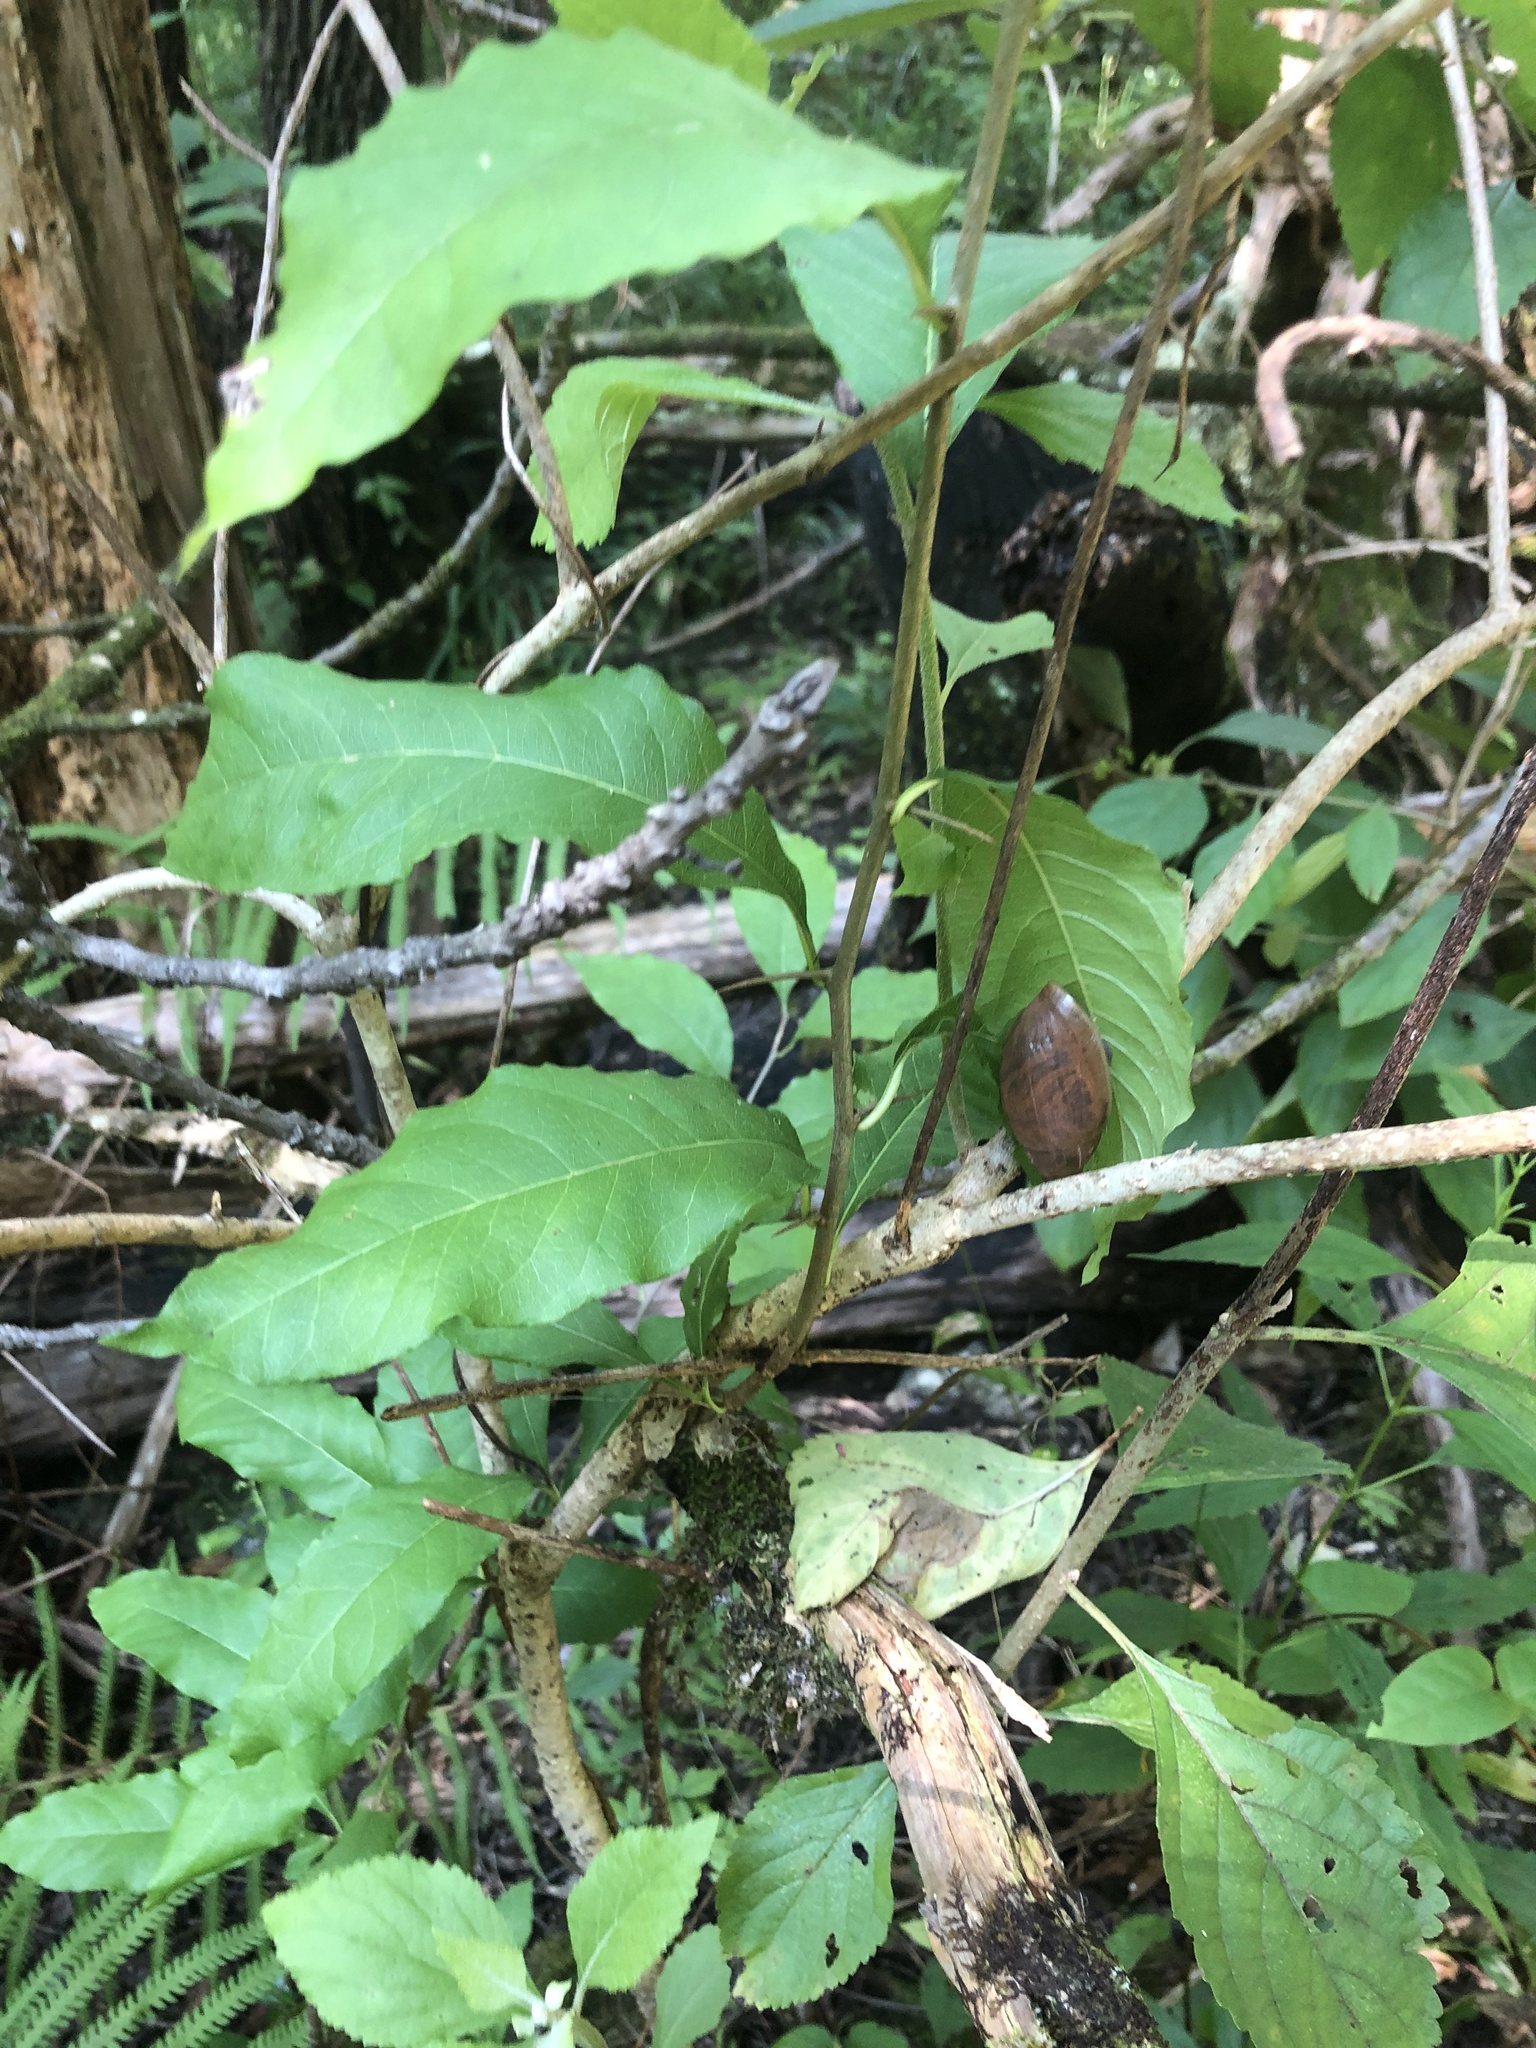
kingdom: Plantae
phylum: Tracheophyta
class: Magnoliopsida
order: Ericales
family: Sapotaceae
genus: Sideroxylon
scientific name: Sideroxylon lycioides
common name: Buckthorn bumelia
